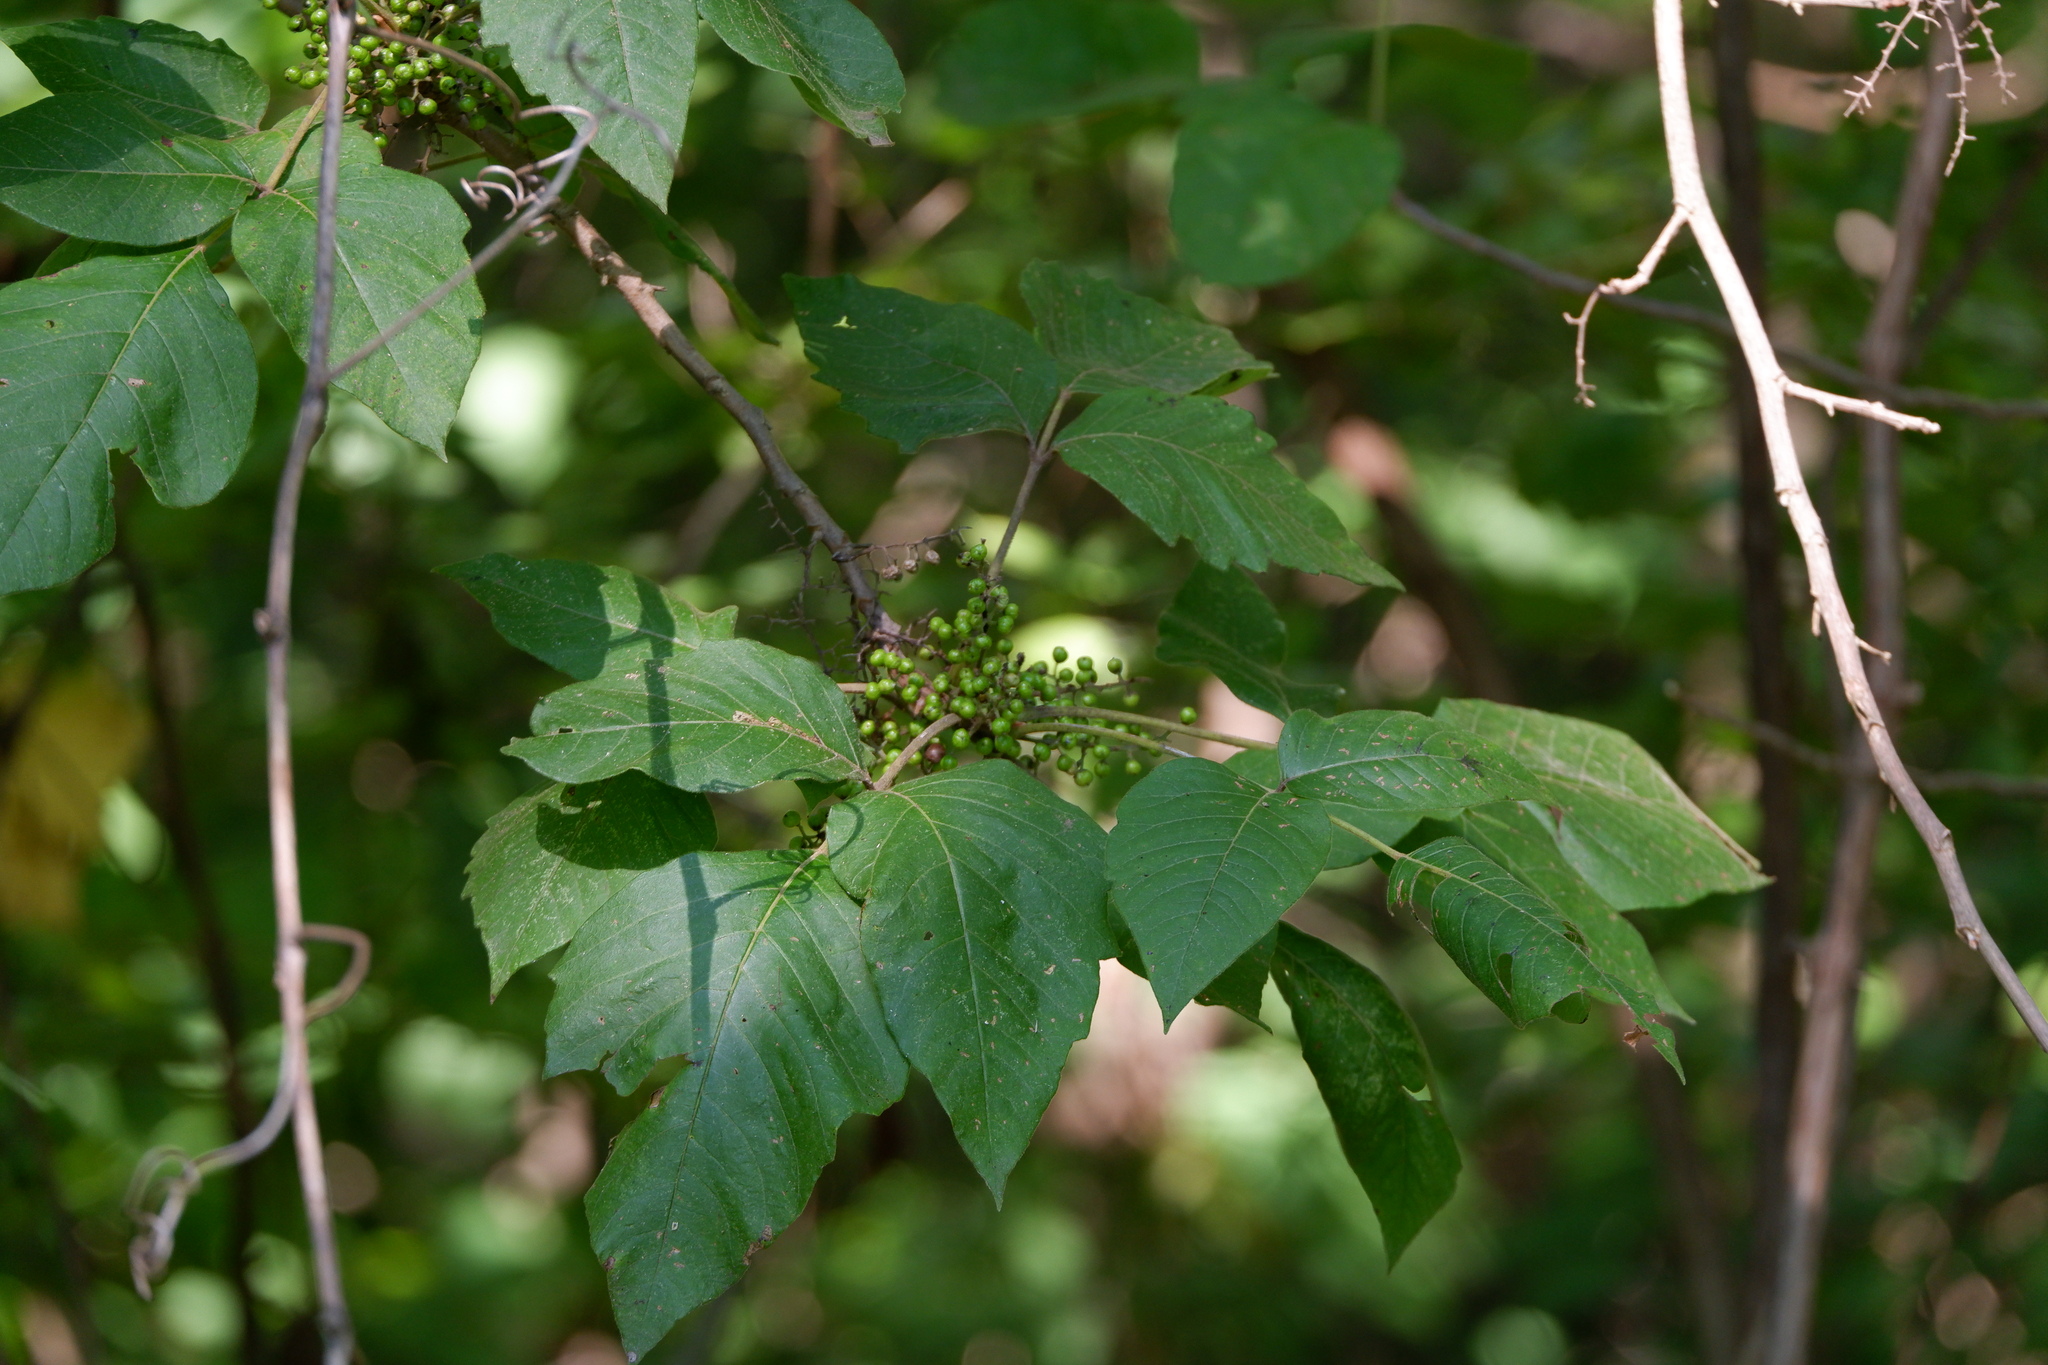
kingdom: Plantae
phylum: Tracheophyta
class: Magnoliopsida
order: Sapindales
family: Anacardiaceae
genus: Toxicodendron
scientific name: Toxicodendron radicans
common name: Poison ivy
